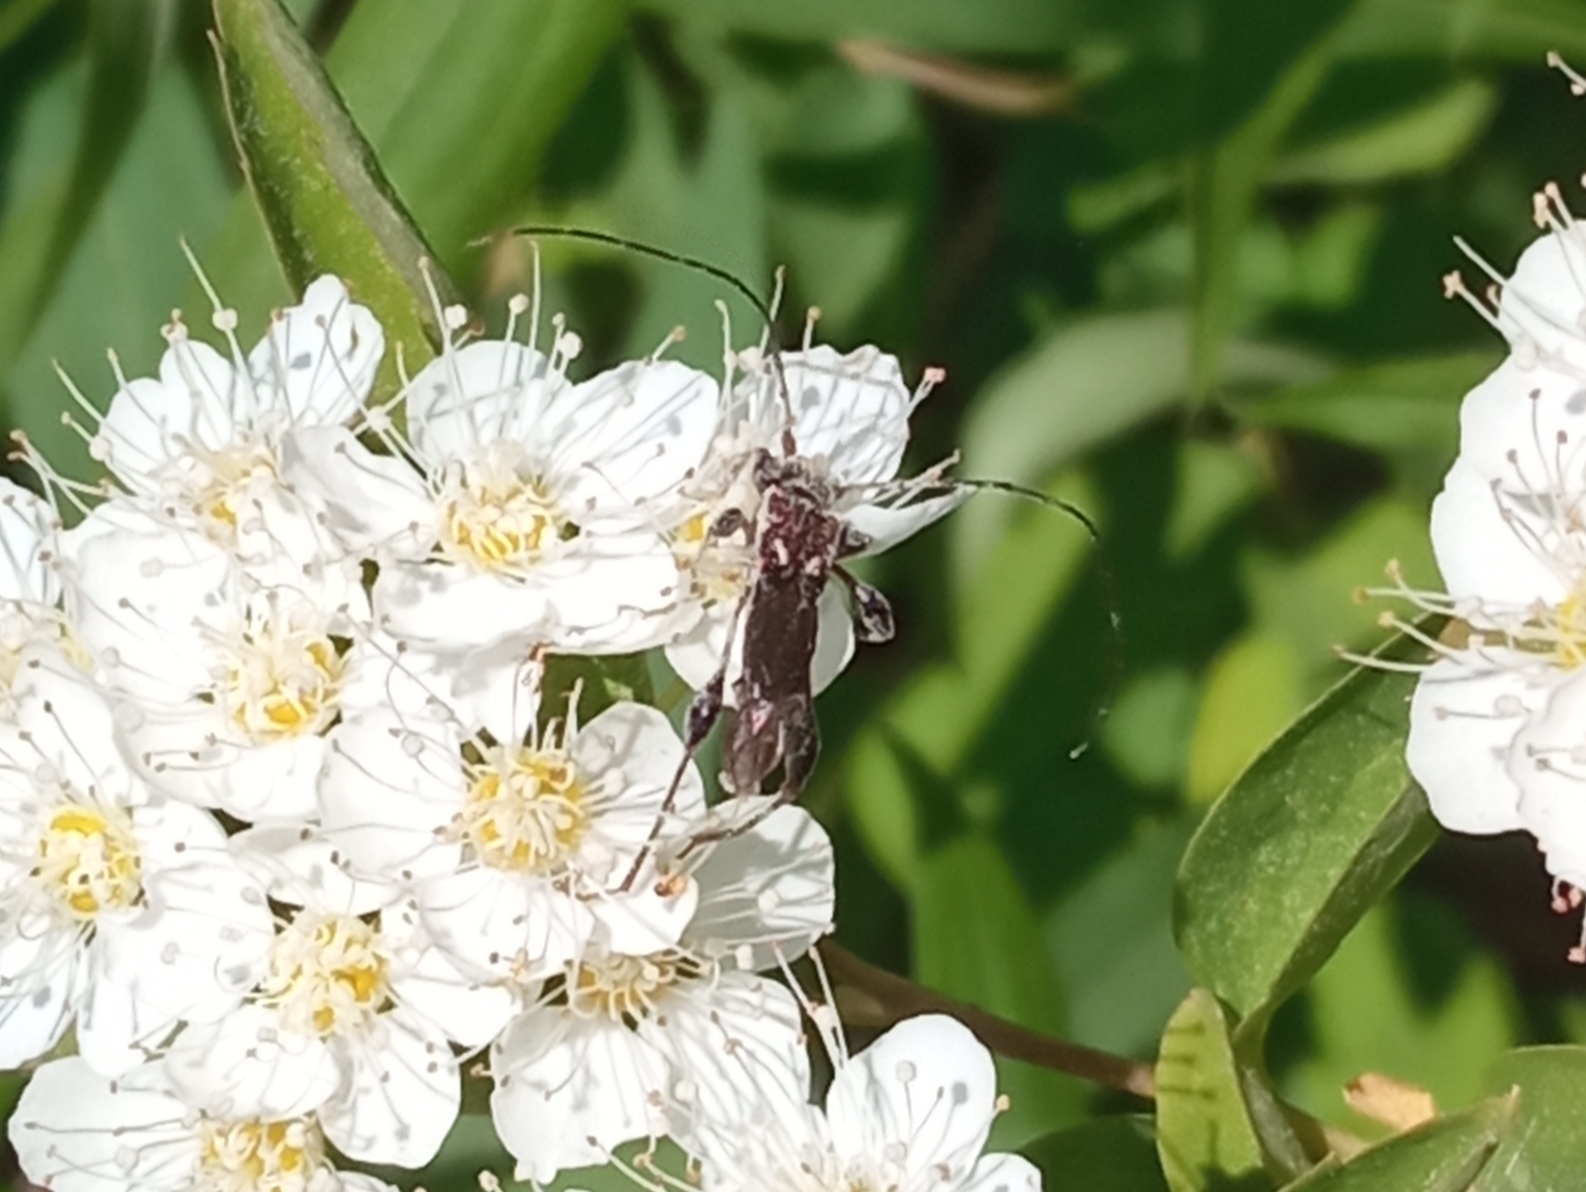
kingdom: Animalia
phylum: Arthropoda
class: Insecta
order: Coleoptera
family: Cerambycidae
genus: Molorchus
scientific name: Molorchus minor
